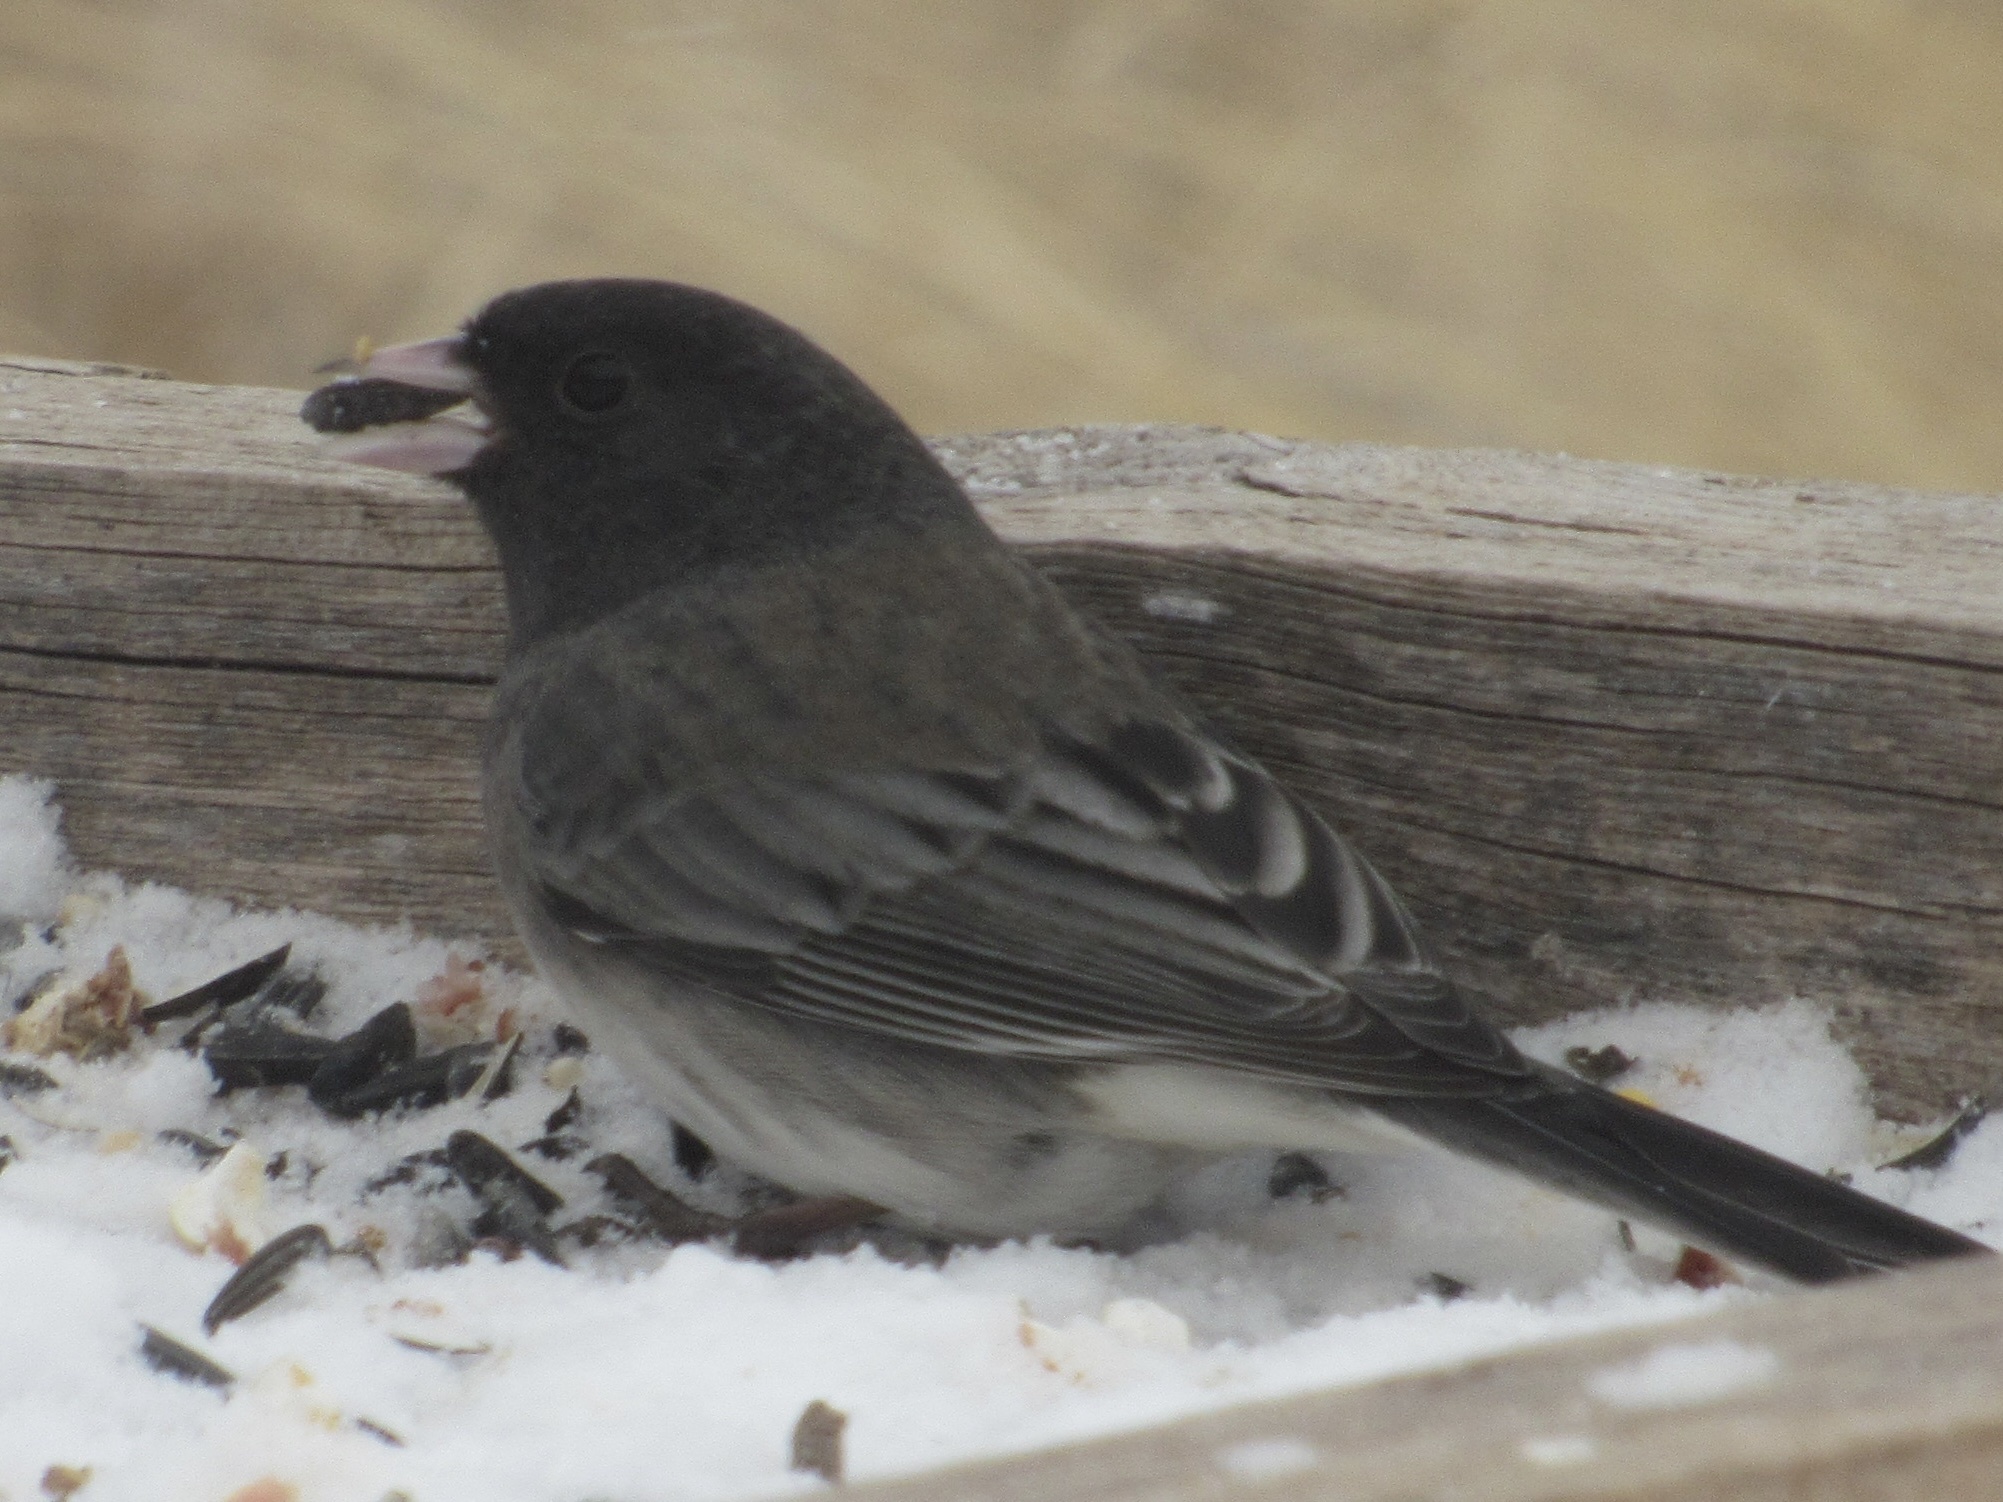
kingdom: Animalia
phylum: Chordata
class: Aves
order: Passeriformes
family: Passerellidae
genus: Junco
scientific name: Junco hyemalis
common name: Dark-eyed junco
